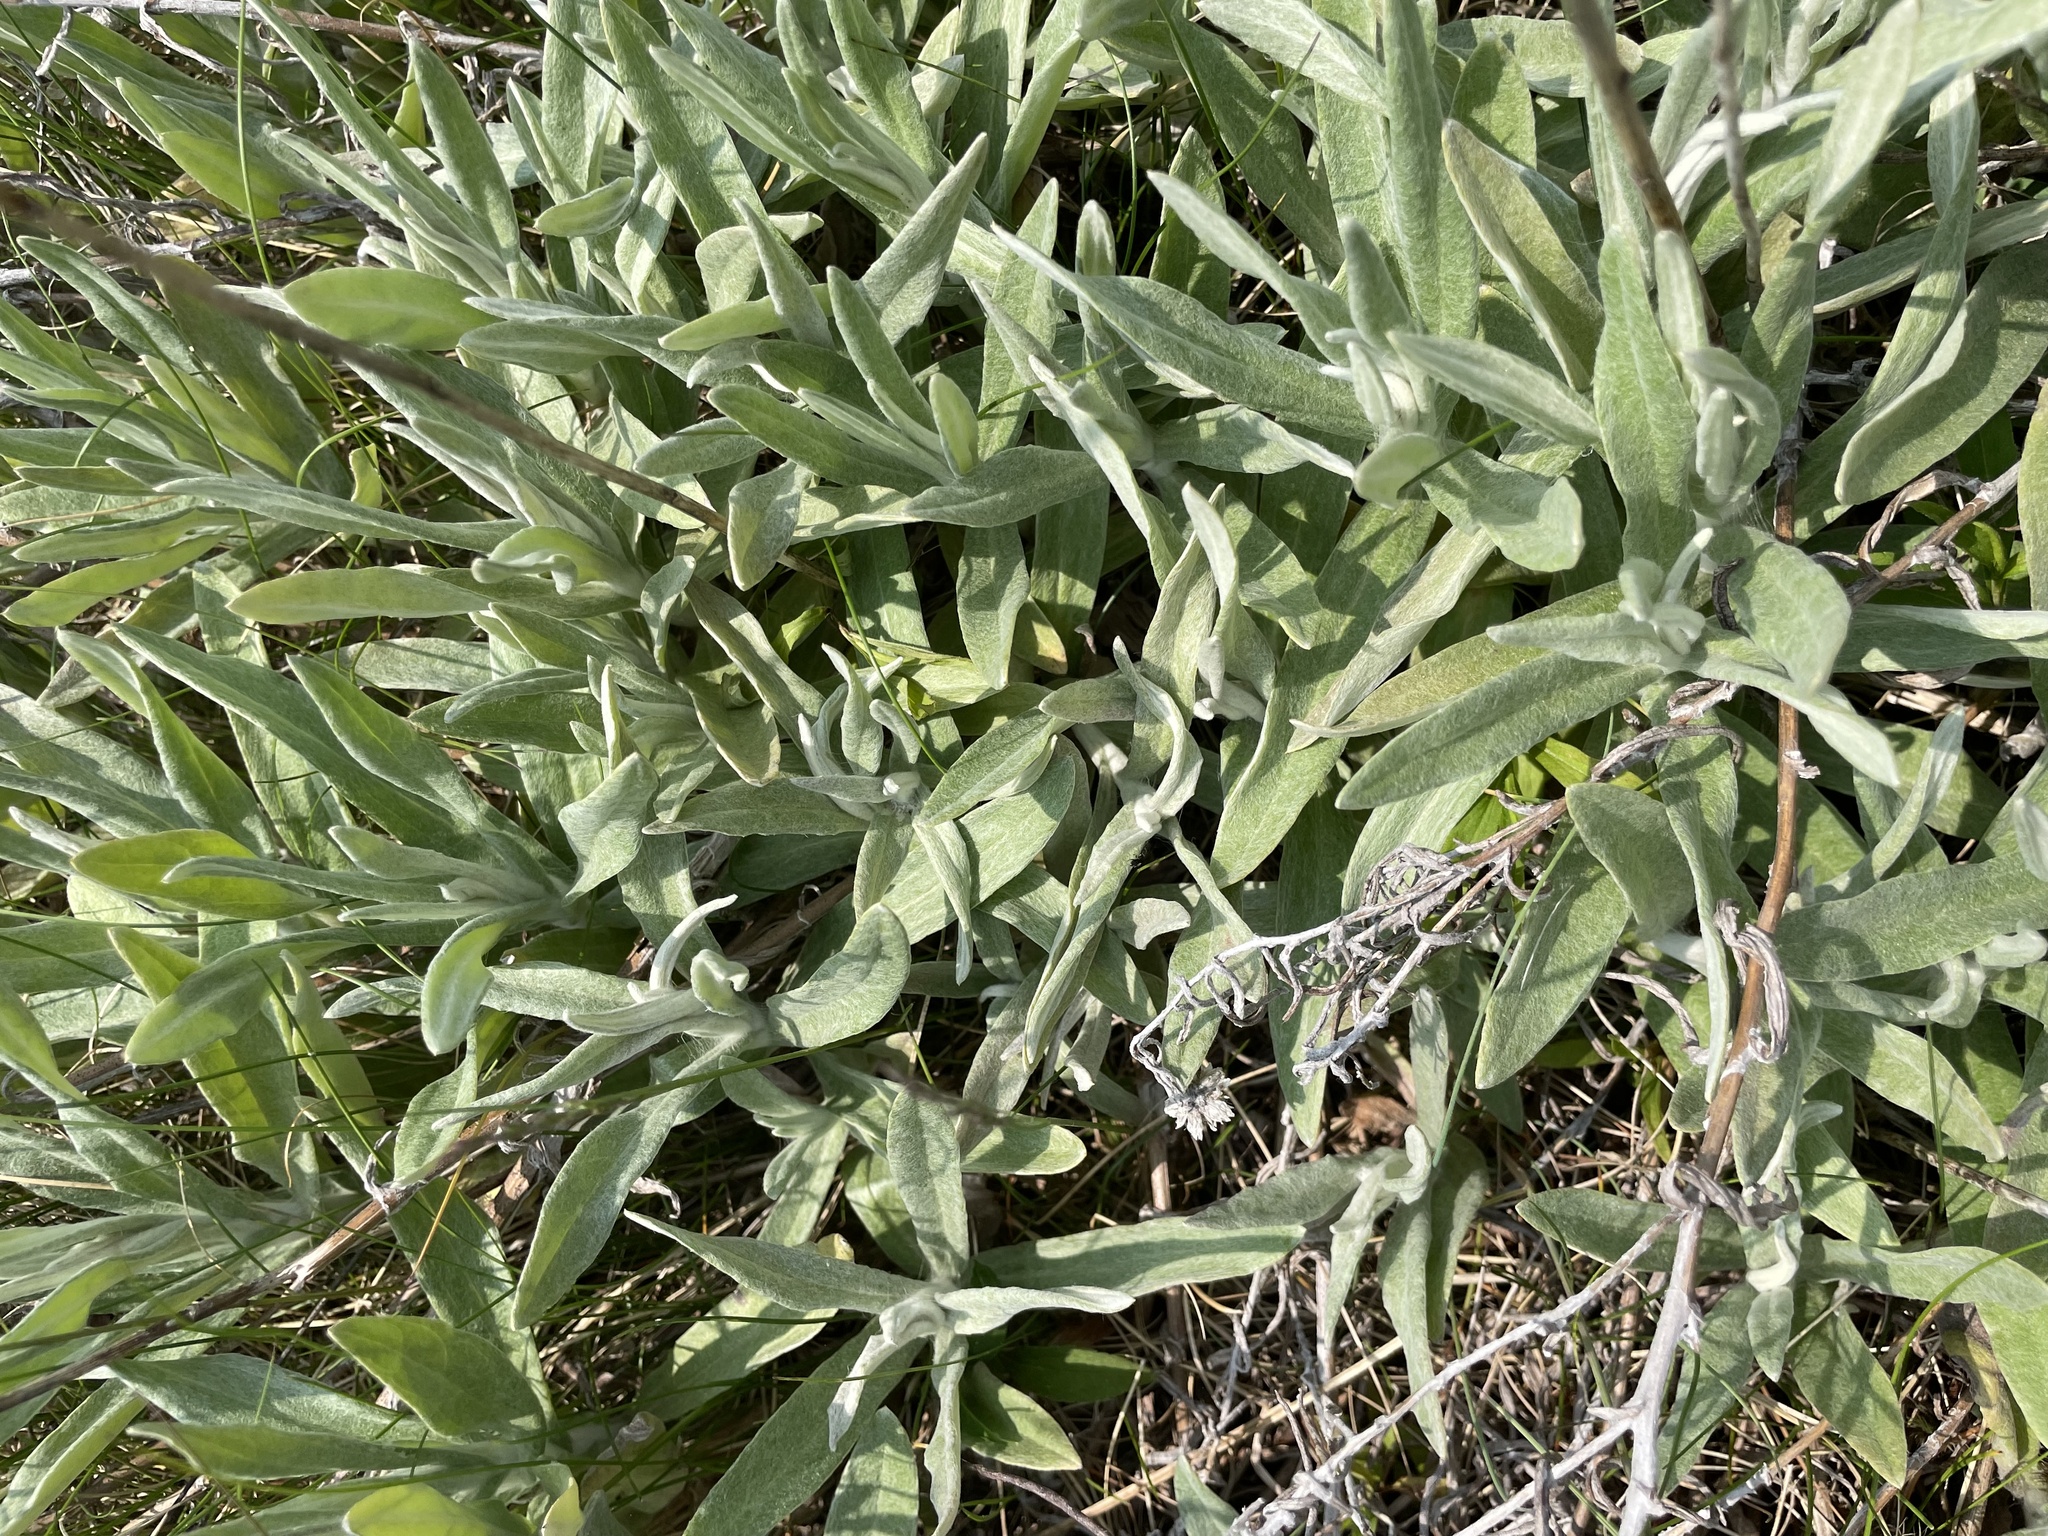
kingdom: Plantae
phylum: Tracheophyta
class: Magnoliopsida
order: Lamiales
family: Lamiaceae
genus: Stachys
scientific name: Stachys byzantina
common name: Lamb's-ear
